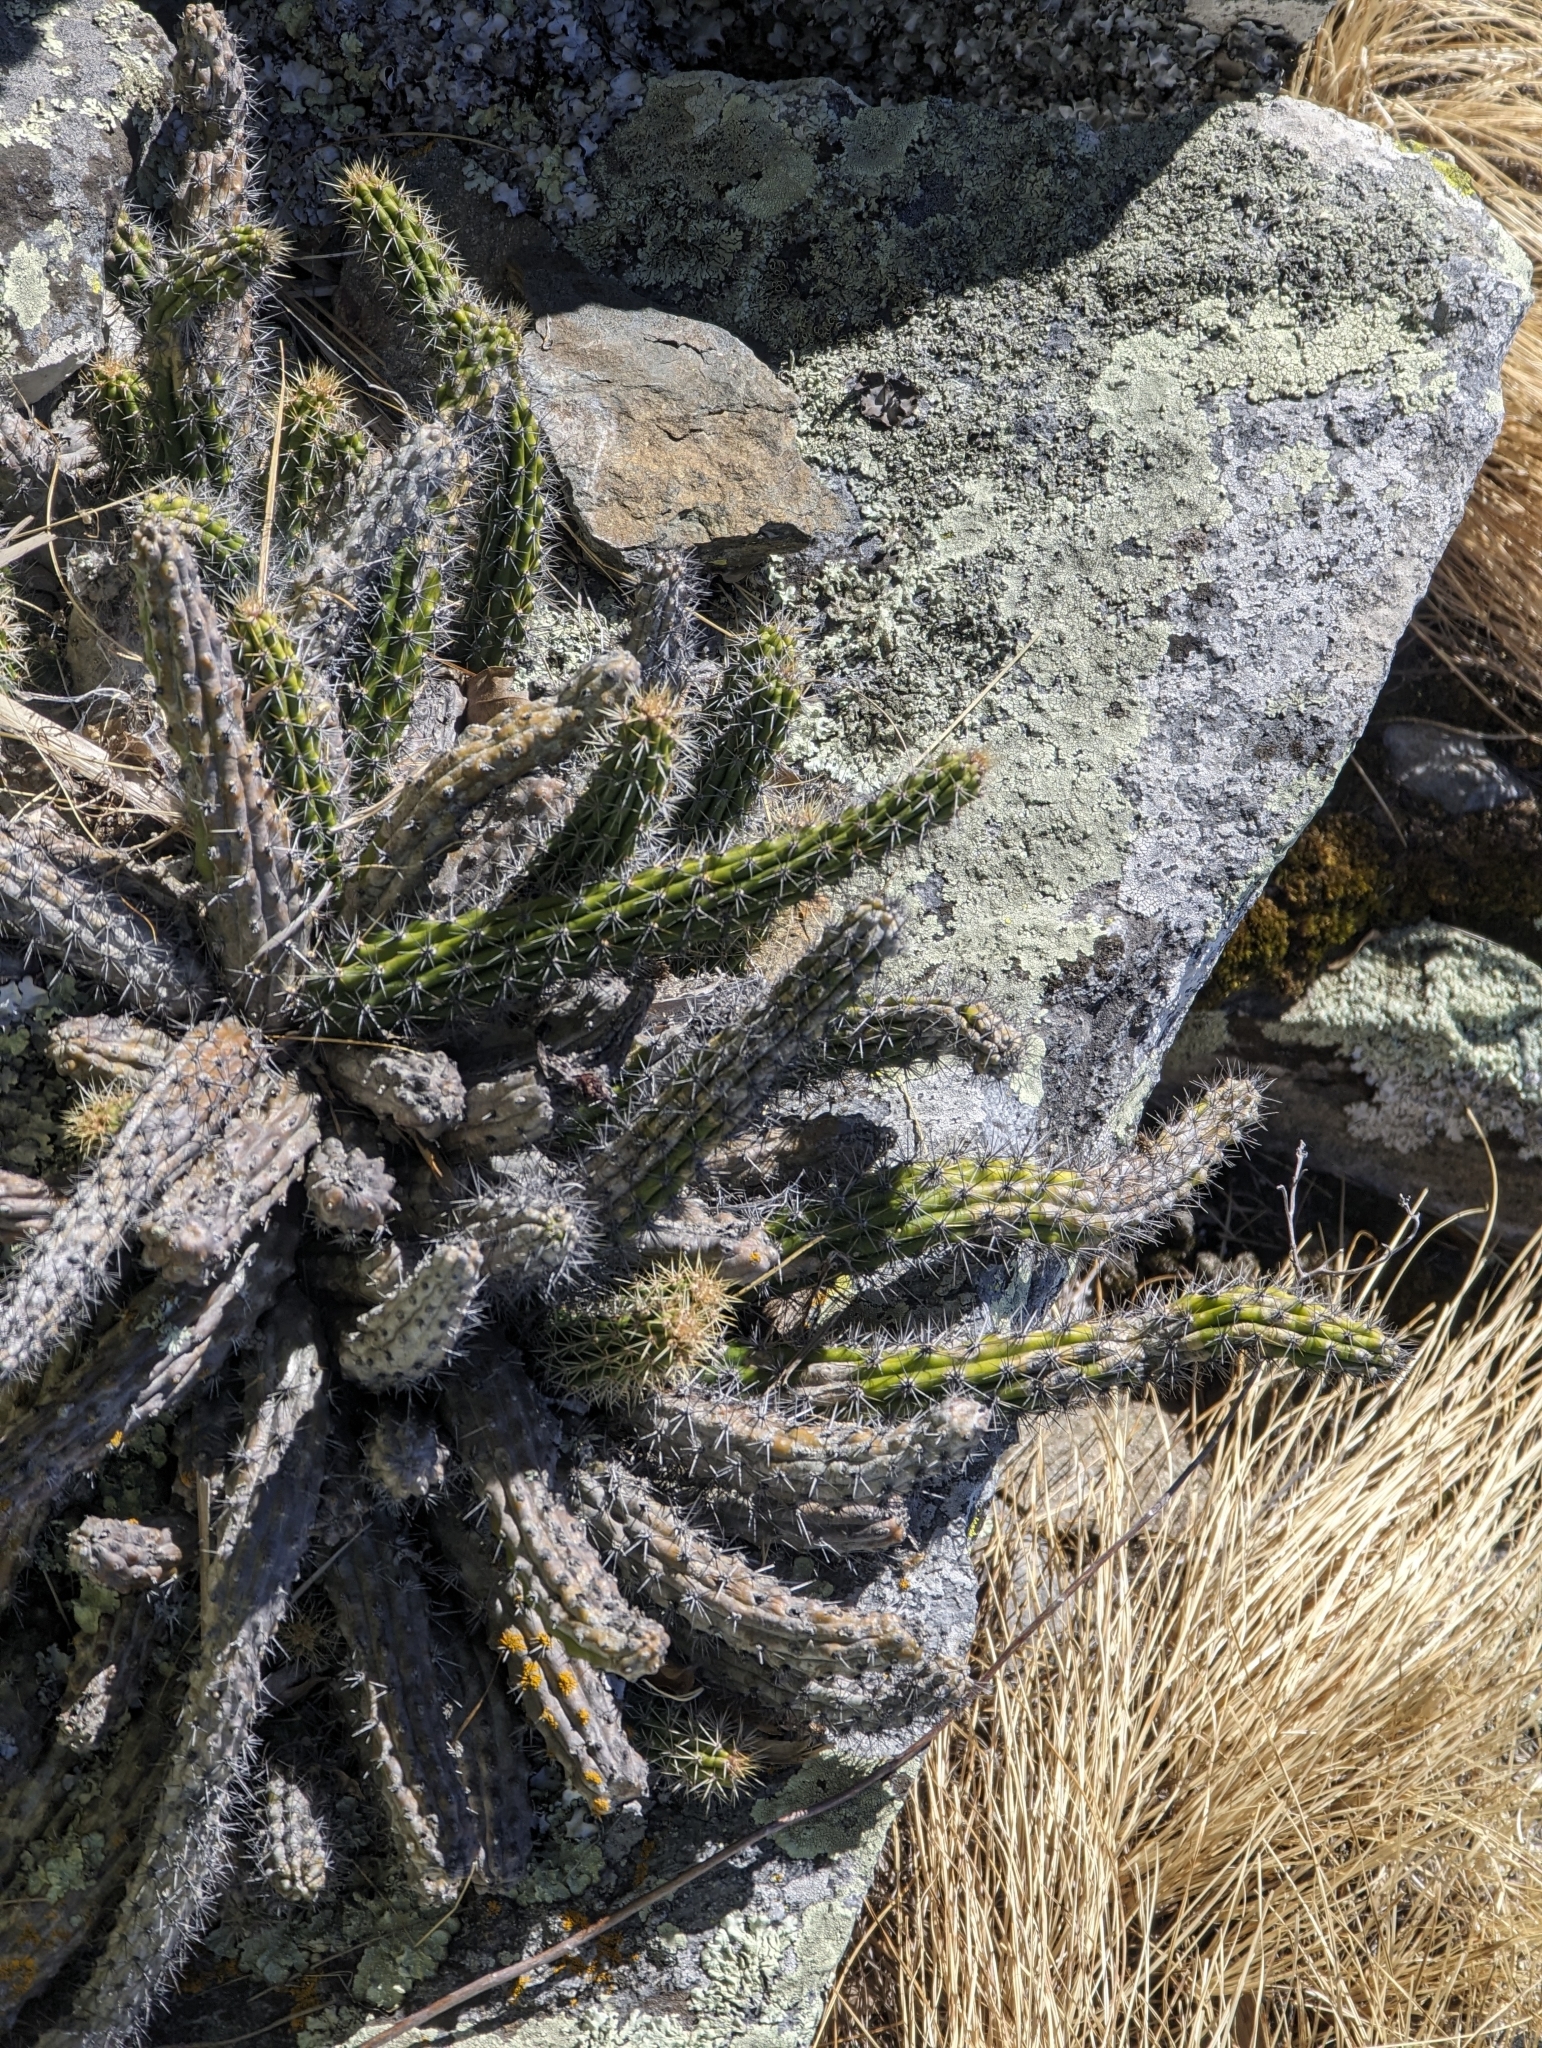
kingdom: Plantae
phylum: Tracheophyta
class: Magnoliopsida
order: Caryophyllales
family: Cactaceae
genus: Echinocereus
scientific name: Echinocereus pensilis
